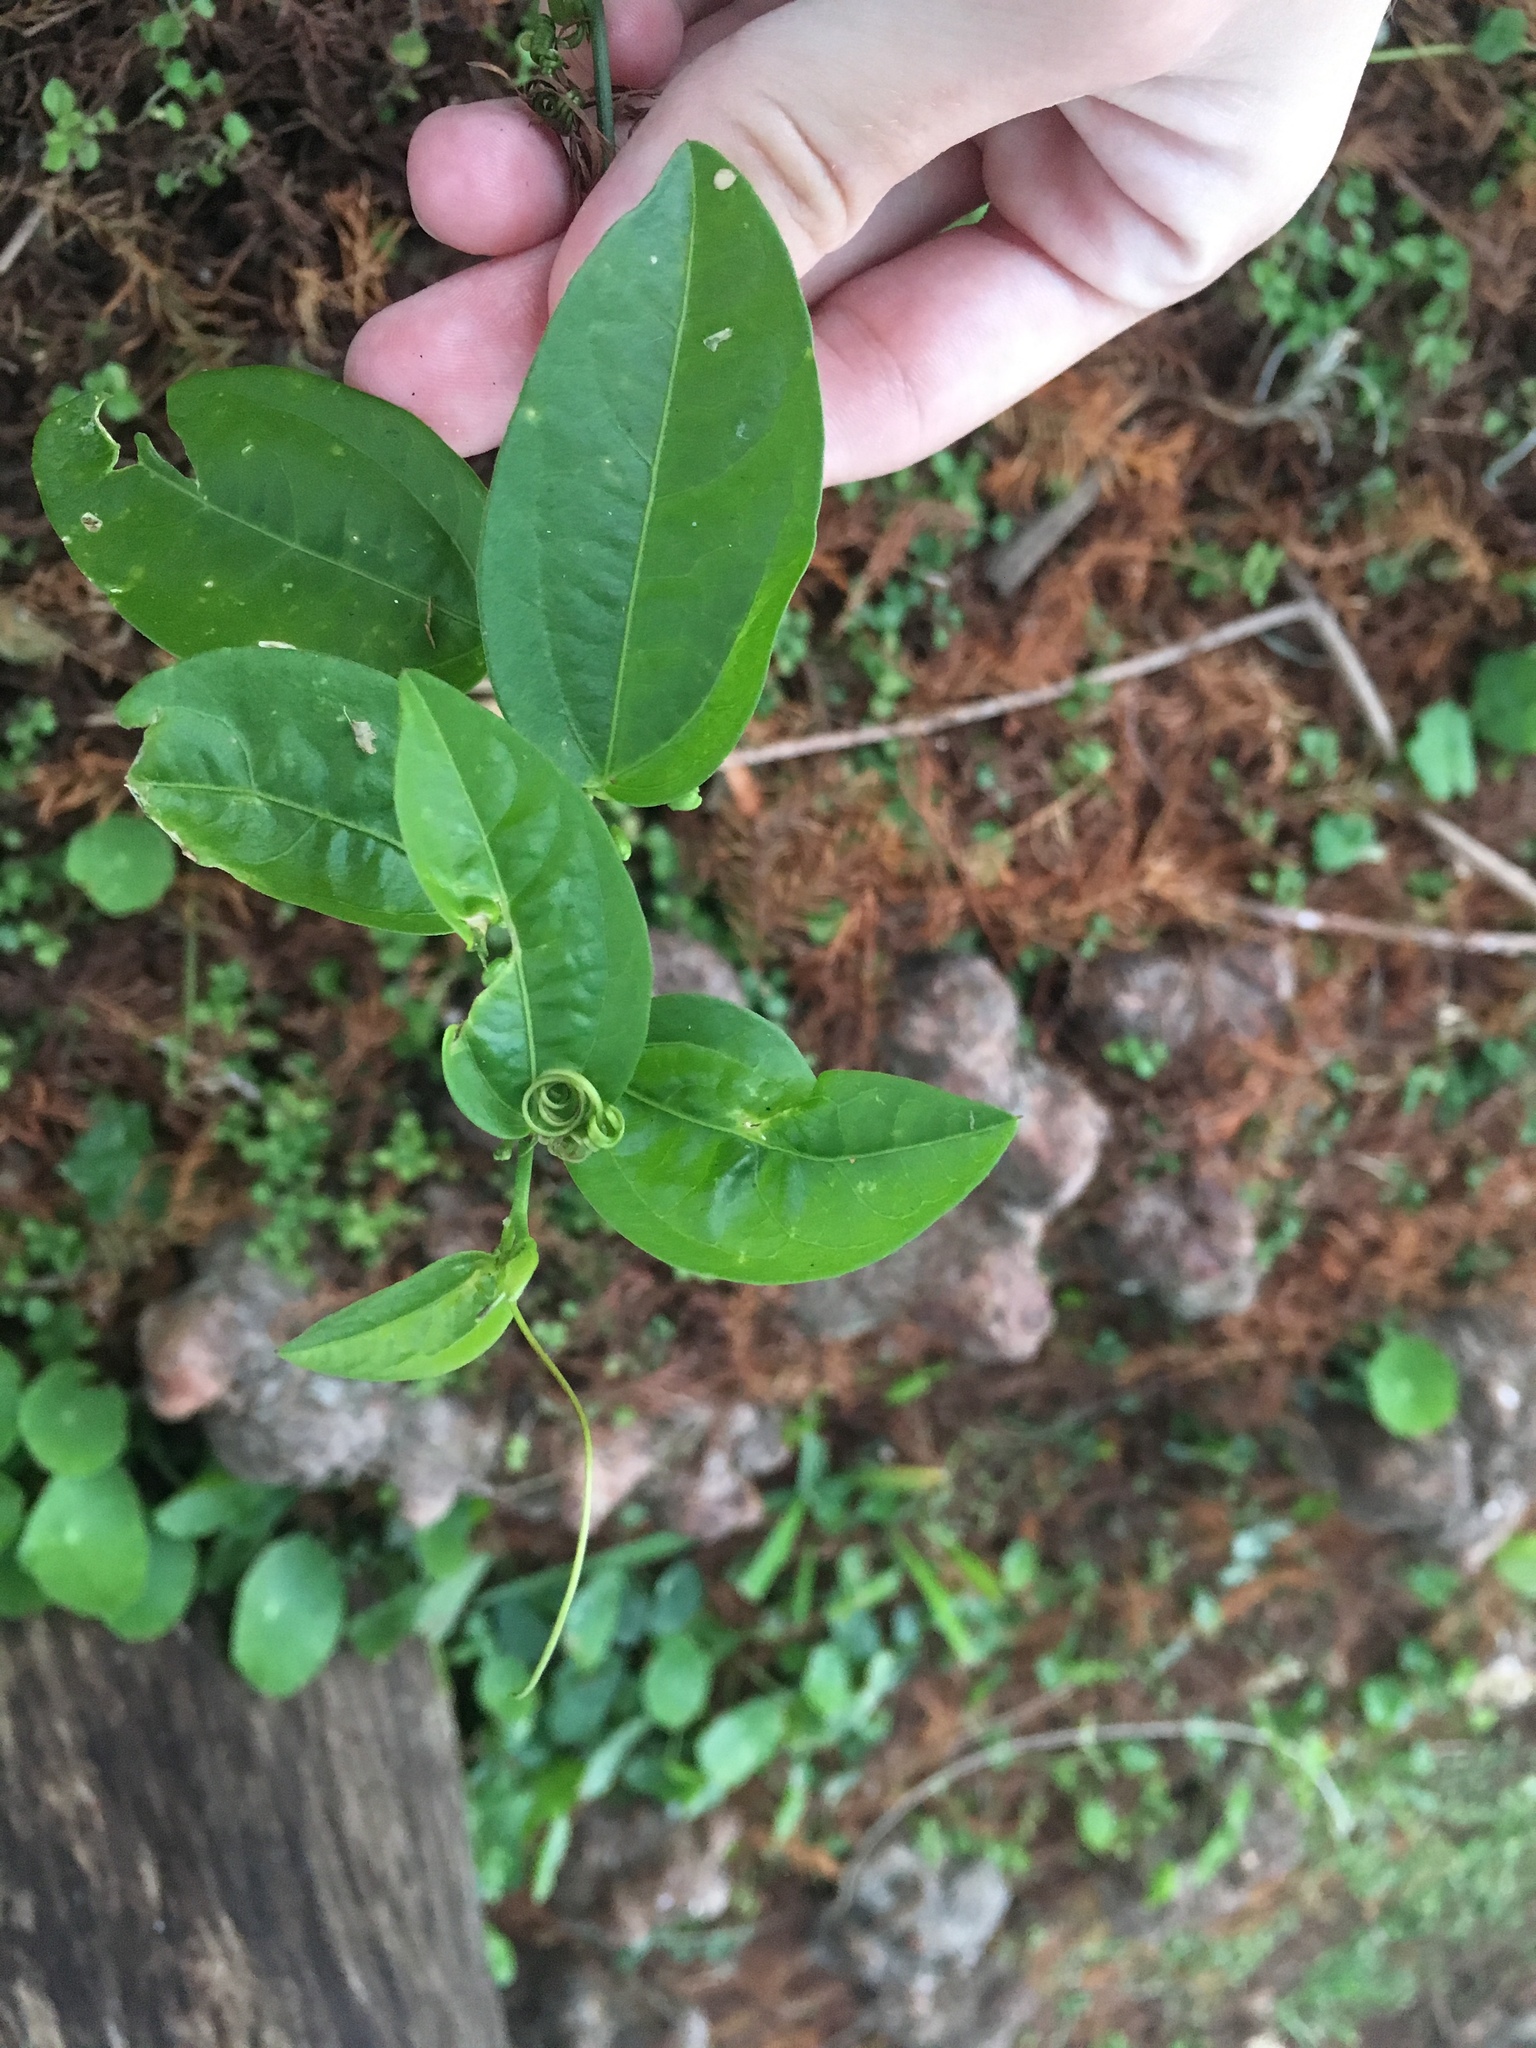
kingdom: Plantae
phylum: Tracheophyta
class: Magnoliopsida
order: Malpighiales
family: Passifloraceae
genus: Passiflora
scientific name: Passiflora pallida
